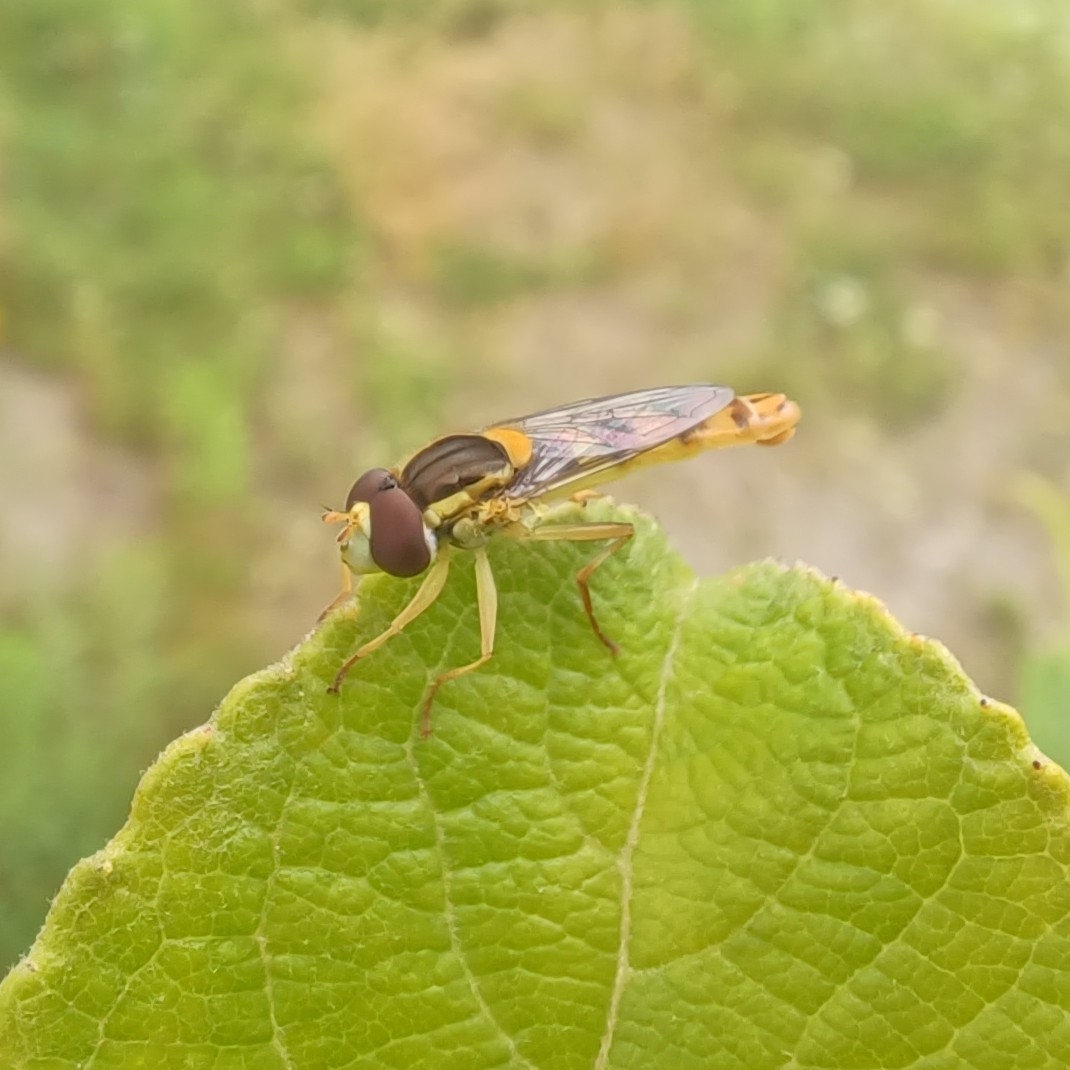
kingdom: Animalia
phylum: Arthropoda
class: Insecta
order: Diptera
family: Syrphidae
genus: Sphaerophoria
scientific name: Sphaerophoria scripta
